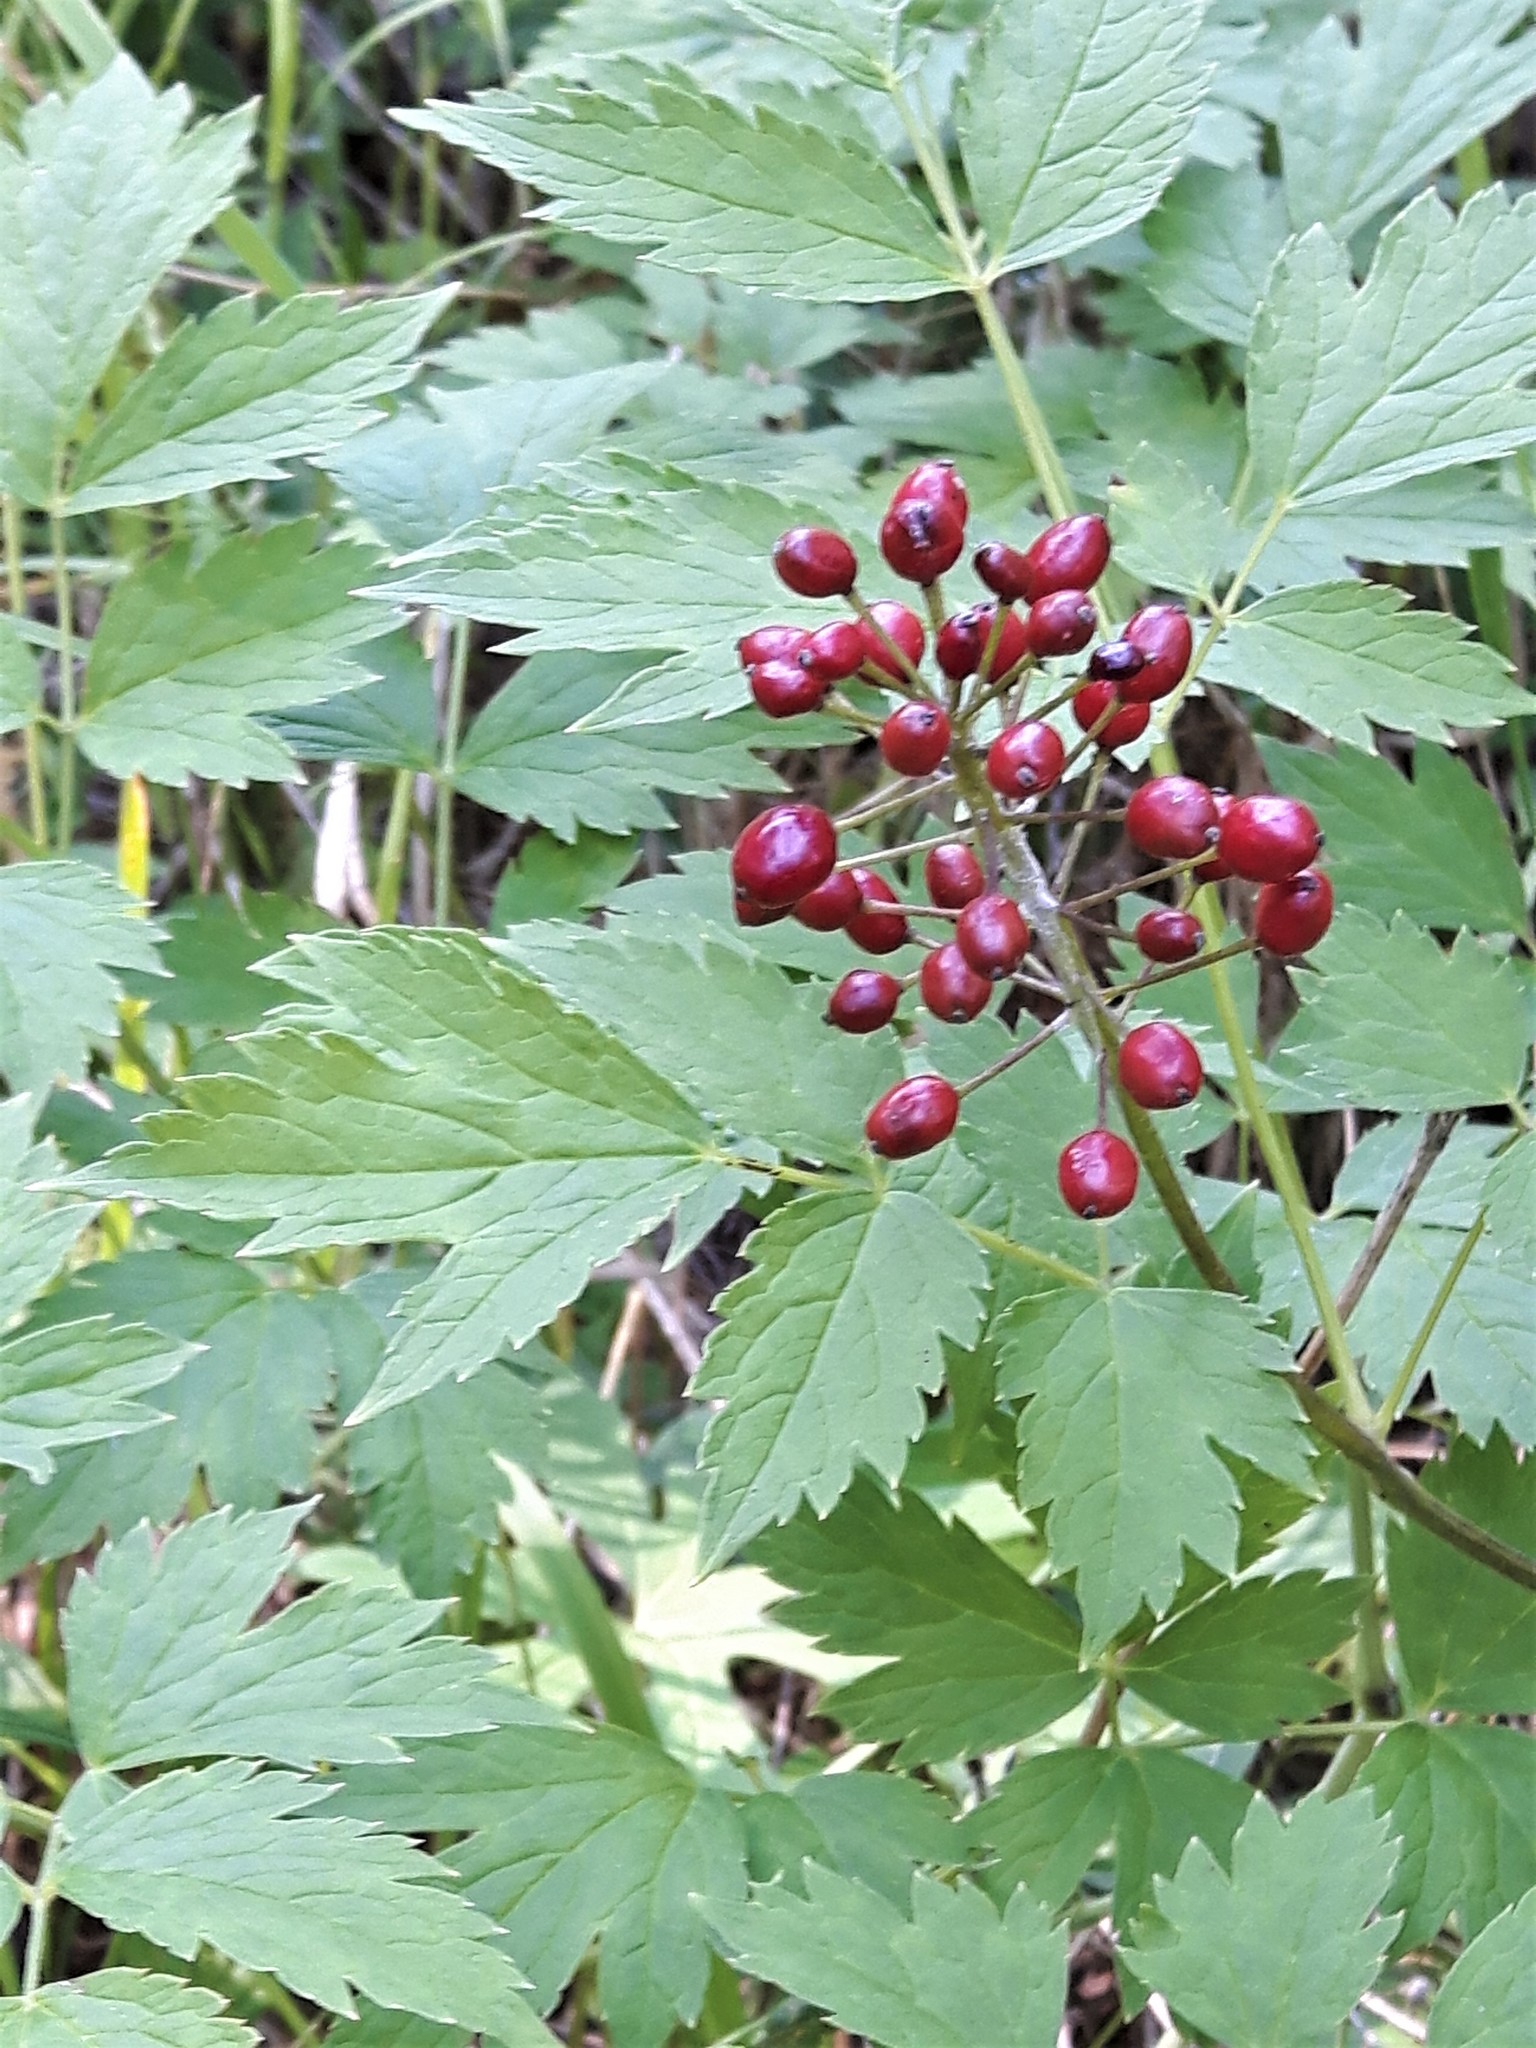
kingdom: Plantae
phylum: Tracheophyta
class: Magnoliopsida
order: Ranunculales
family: Ranunculaceae
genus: Actaea
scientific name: Actaea rubra
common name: Red baneberry
